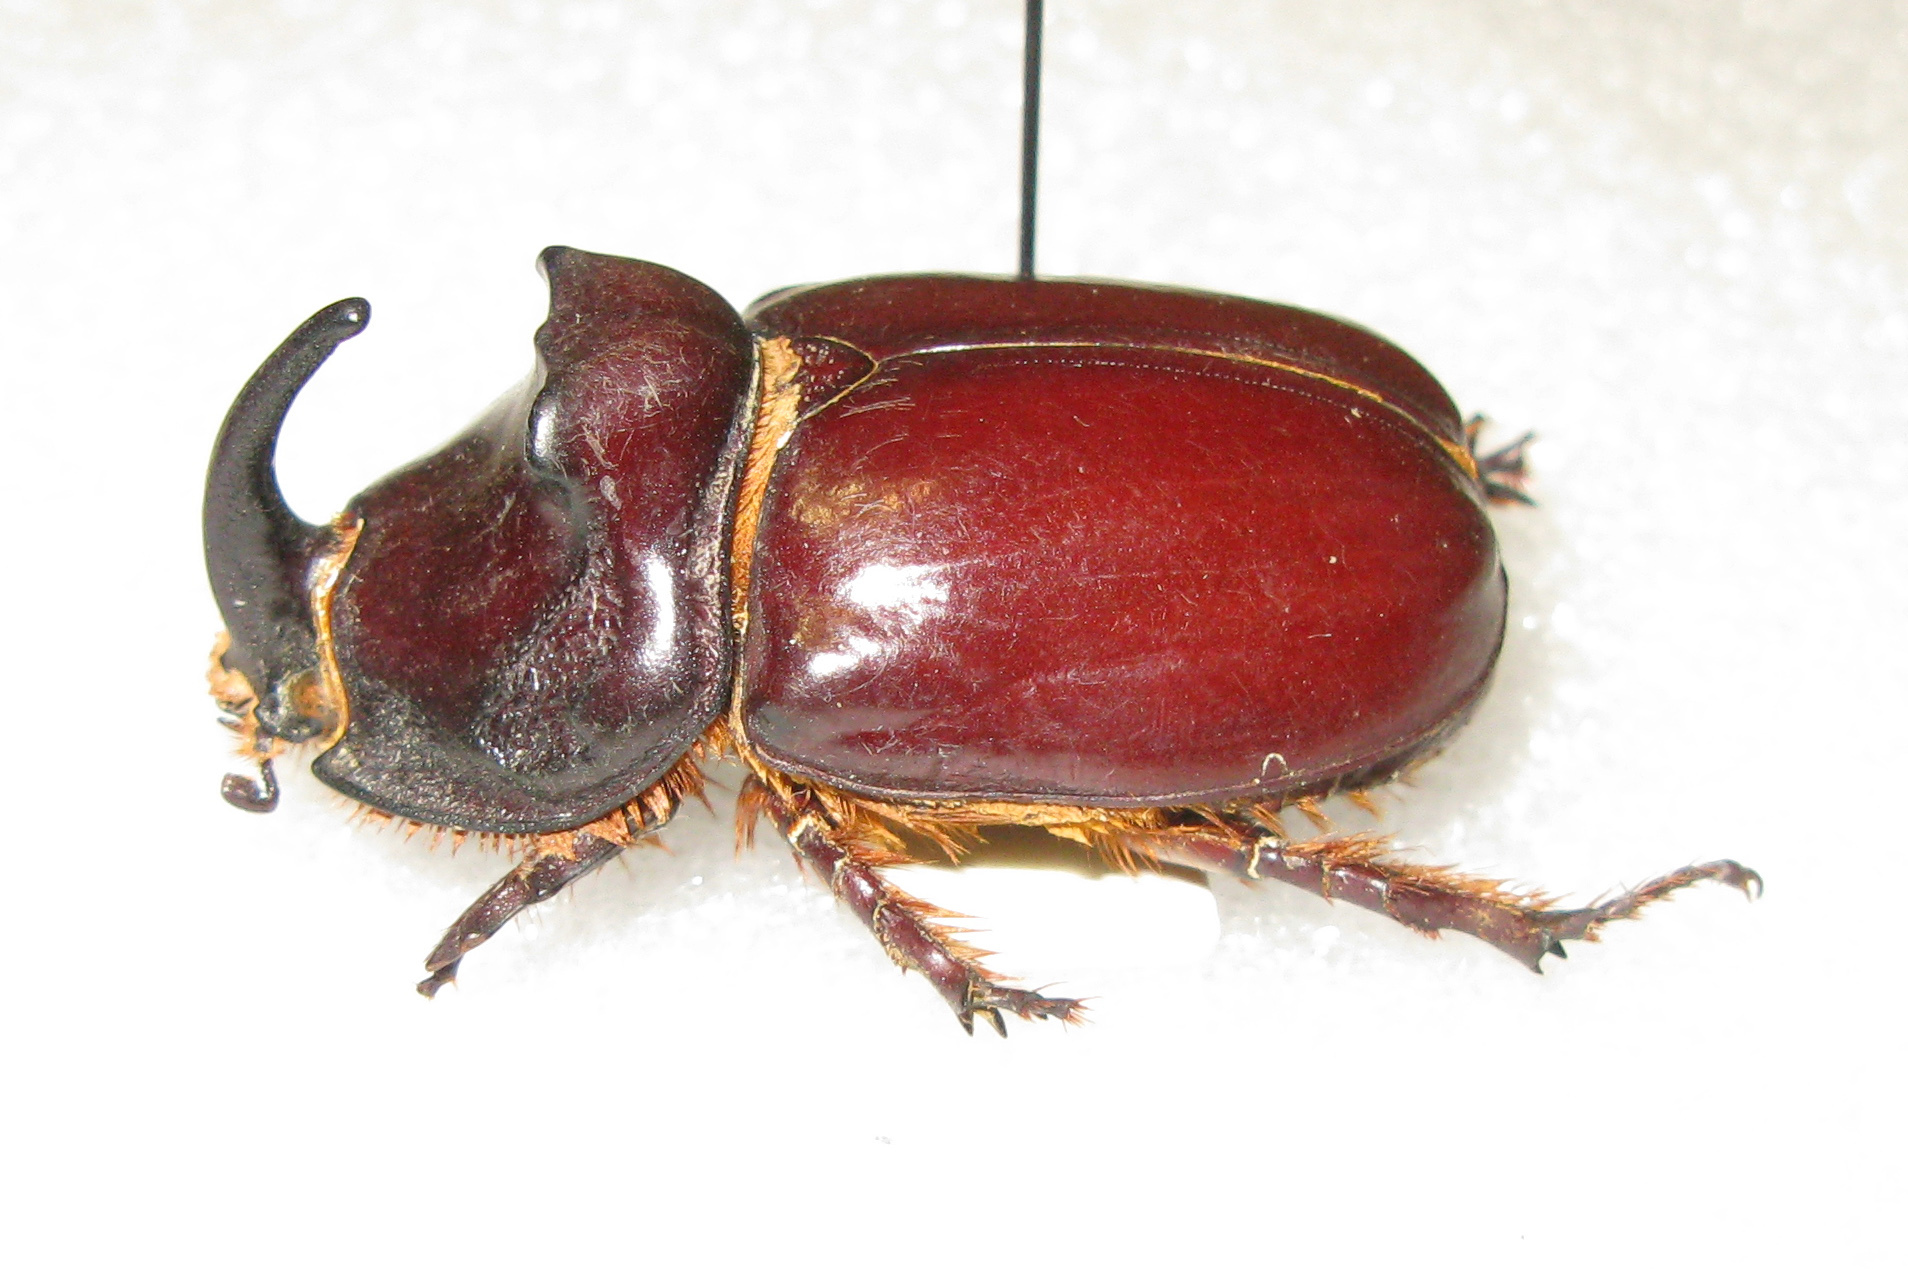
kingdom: Animalia
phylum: Arthropoda
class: Insecta
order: Coleoptera
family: Scarabaeidae
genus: Oryctes
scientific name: Oryctes nasicornis
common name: European rhinoceros beetle
